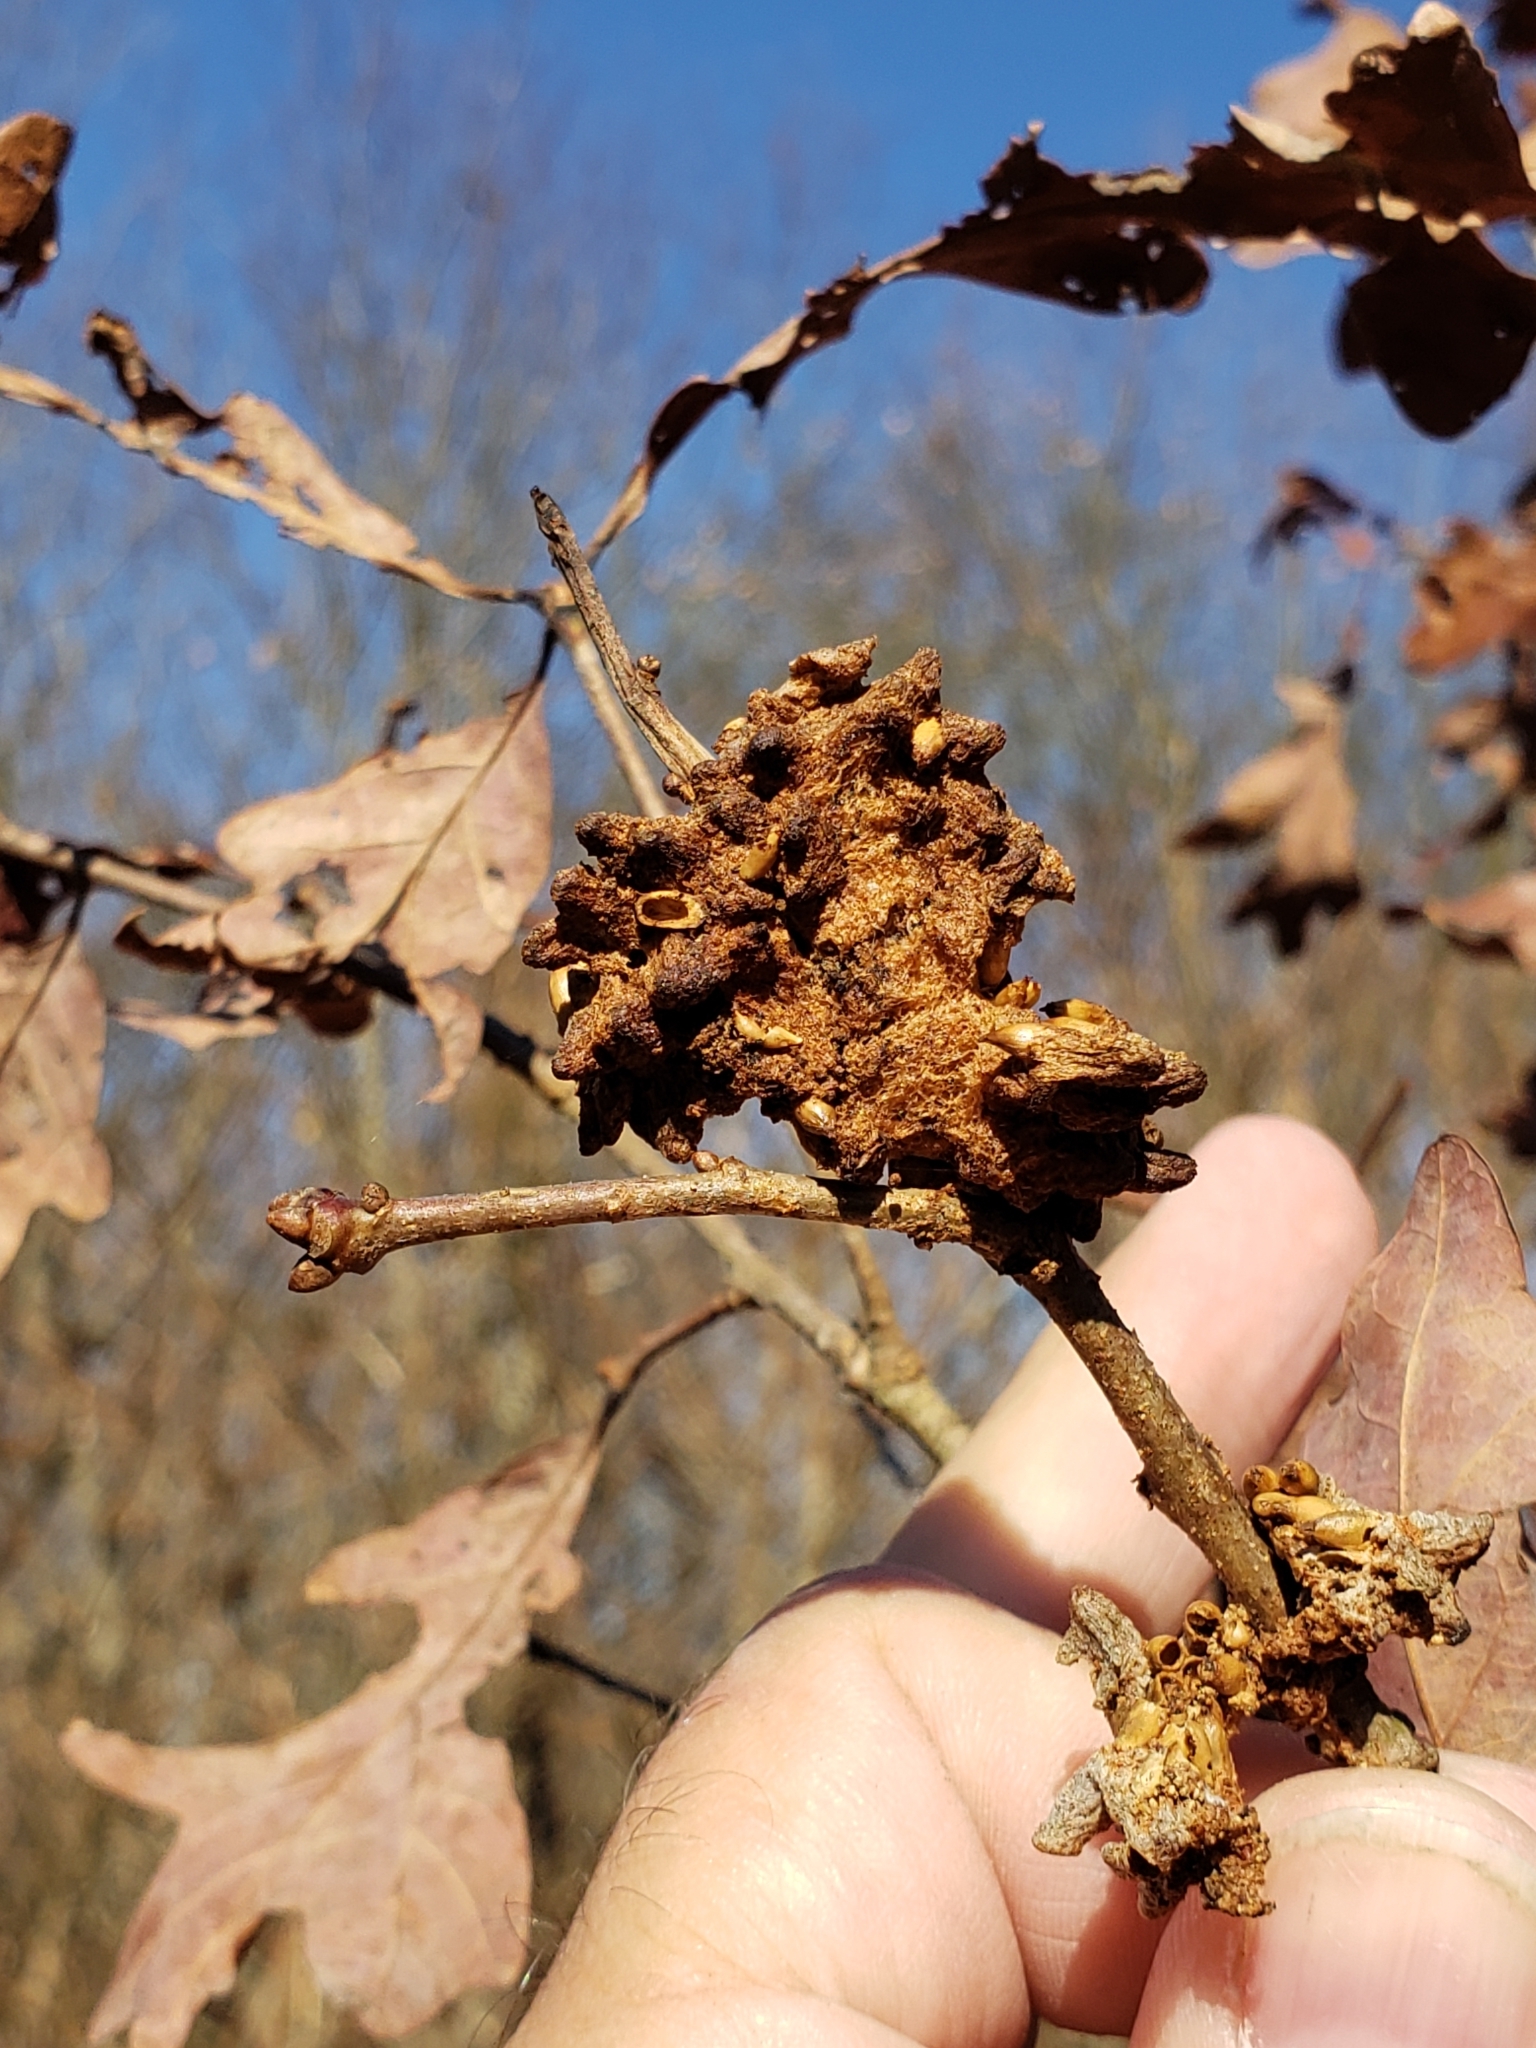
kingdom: Animalia
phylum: Arthropoda
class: Insecta
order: Hymenoptera
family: Cynipidae
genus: Callirhytis
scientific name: Callirhytis
